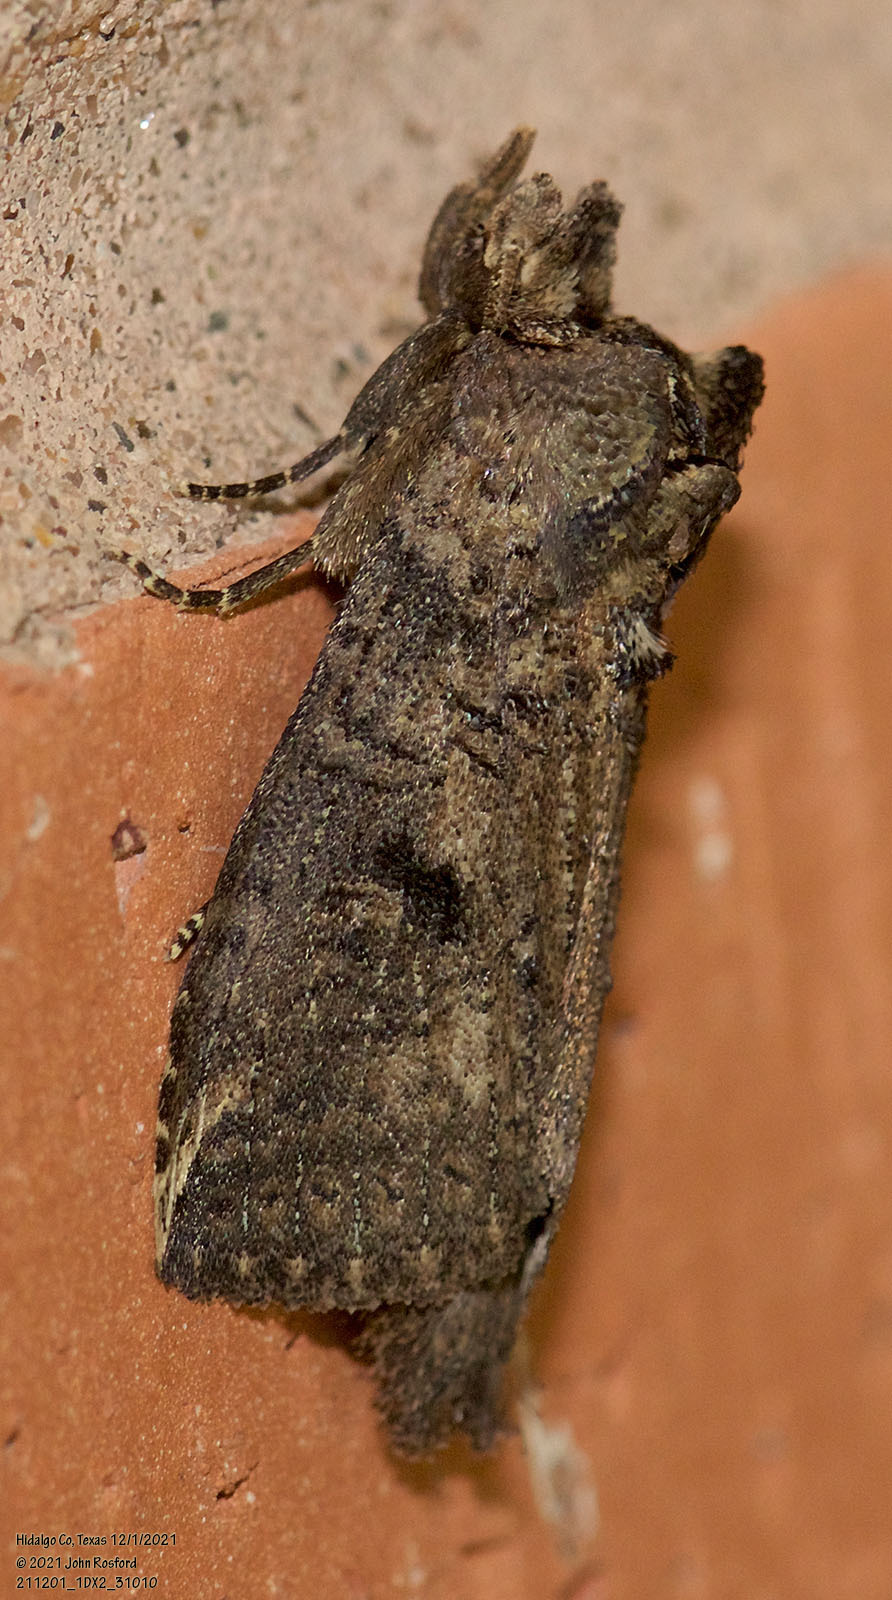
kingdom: Animalia
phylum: Arthropoda
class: Insecta
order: Lepidoptera
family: Notodontidae
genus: Elasmia
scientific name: Elasmia mandela
